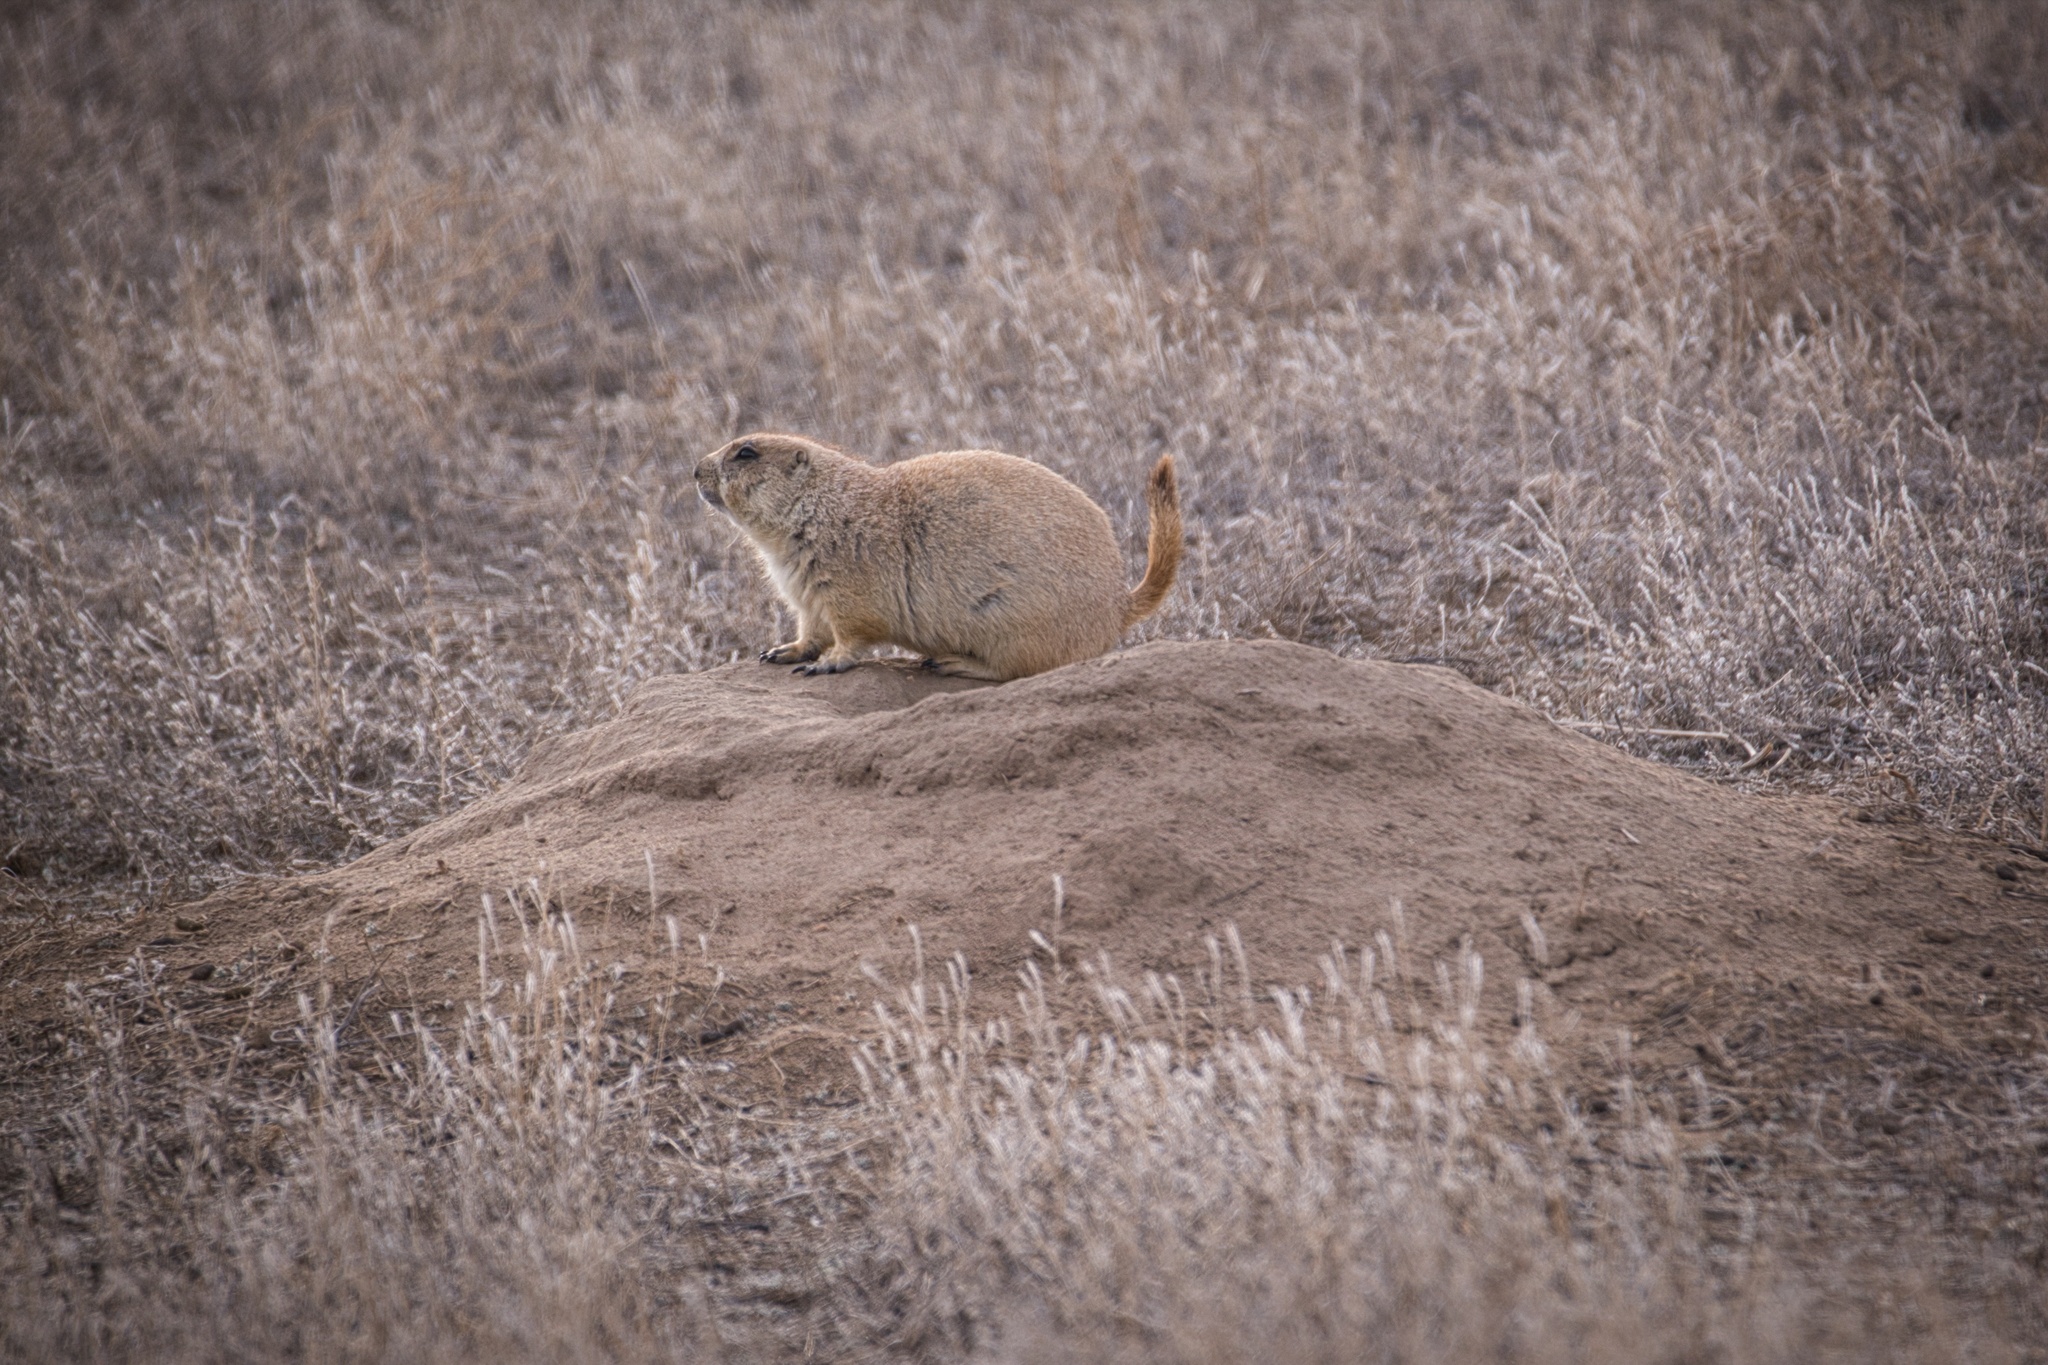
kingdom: Animalia
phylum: Chordata
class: Mammalia
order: Rodentia
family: Sciuridae
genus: Cynomys
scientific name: Cynomys ludovicianus
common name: Black-tailed prairie dog
